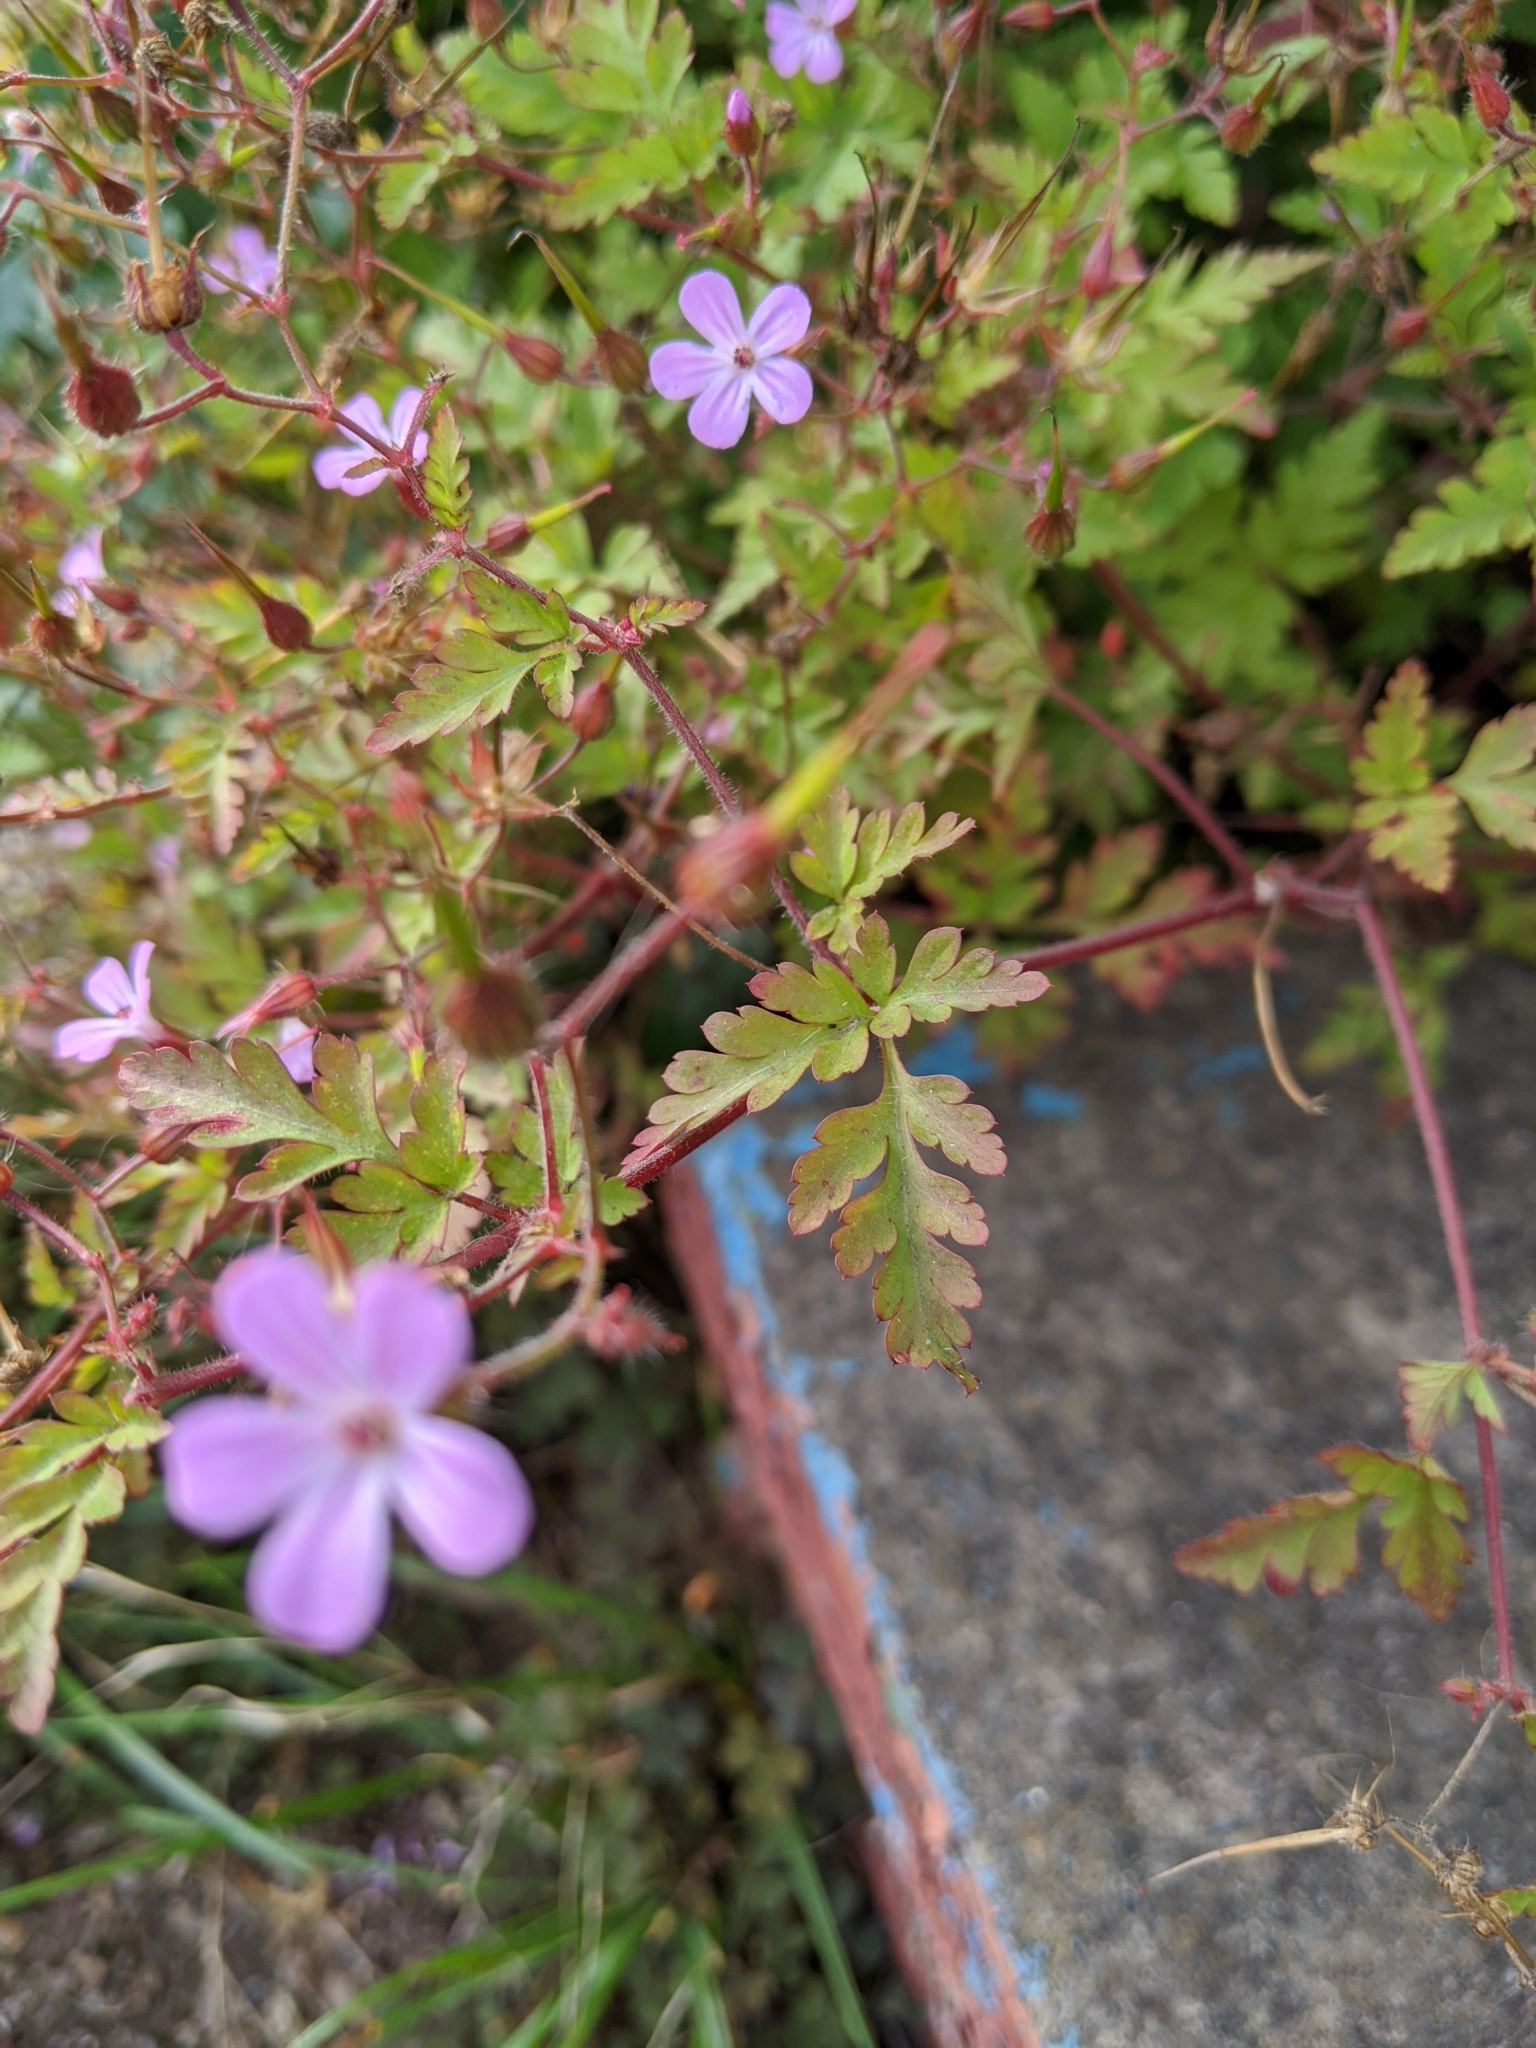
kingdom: Plantae
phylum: Tracheophyta
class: Magnoliopsida
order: Geraniales
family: Geraniaceae
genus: Geranium
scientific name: Geranium robertianum
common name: Herb-robert
